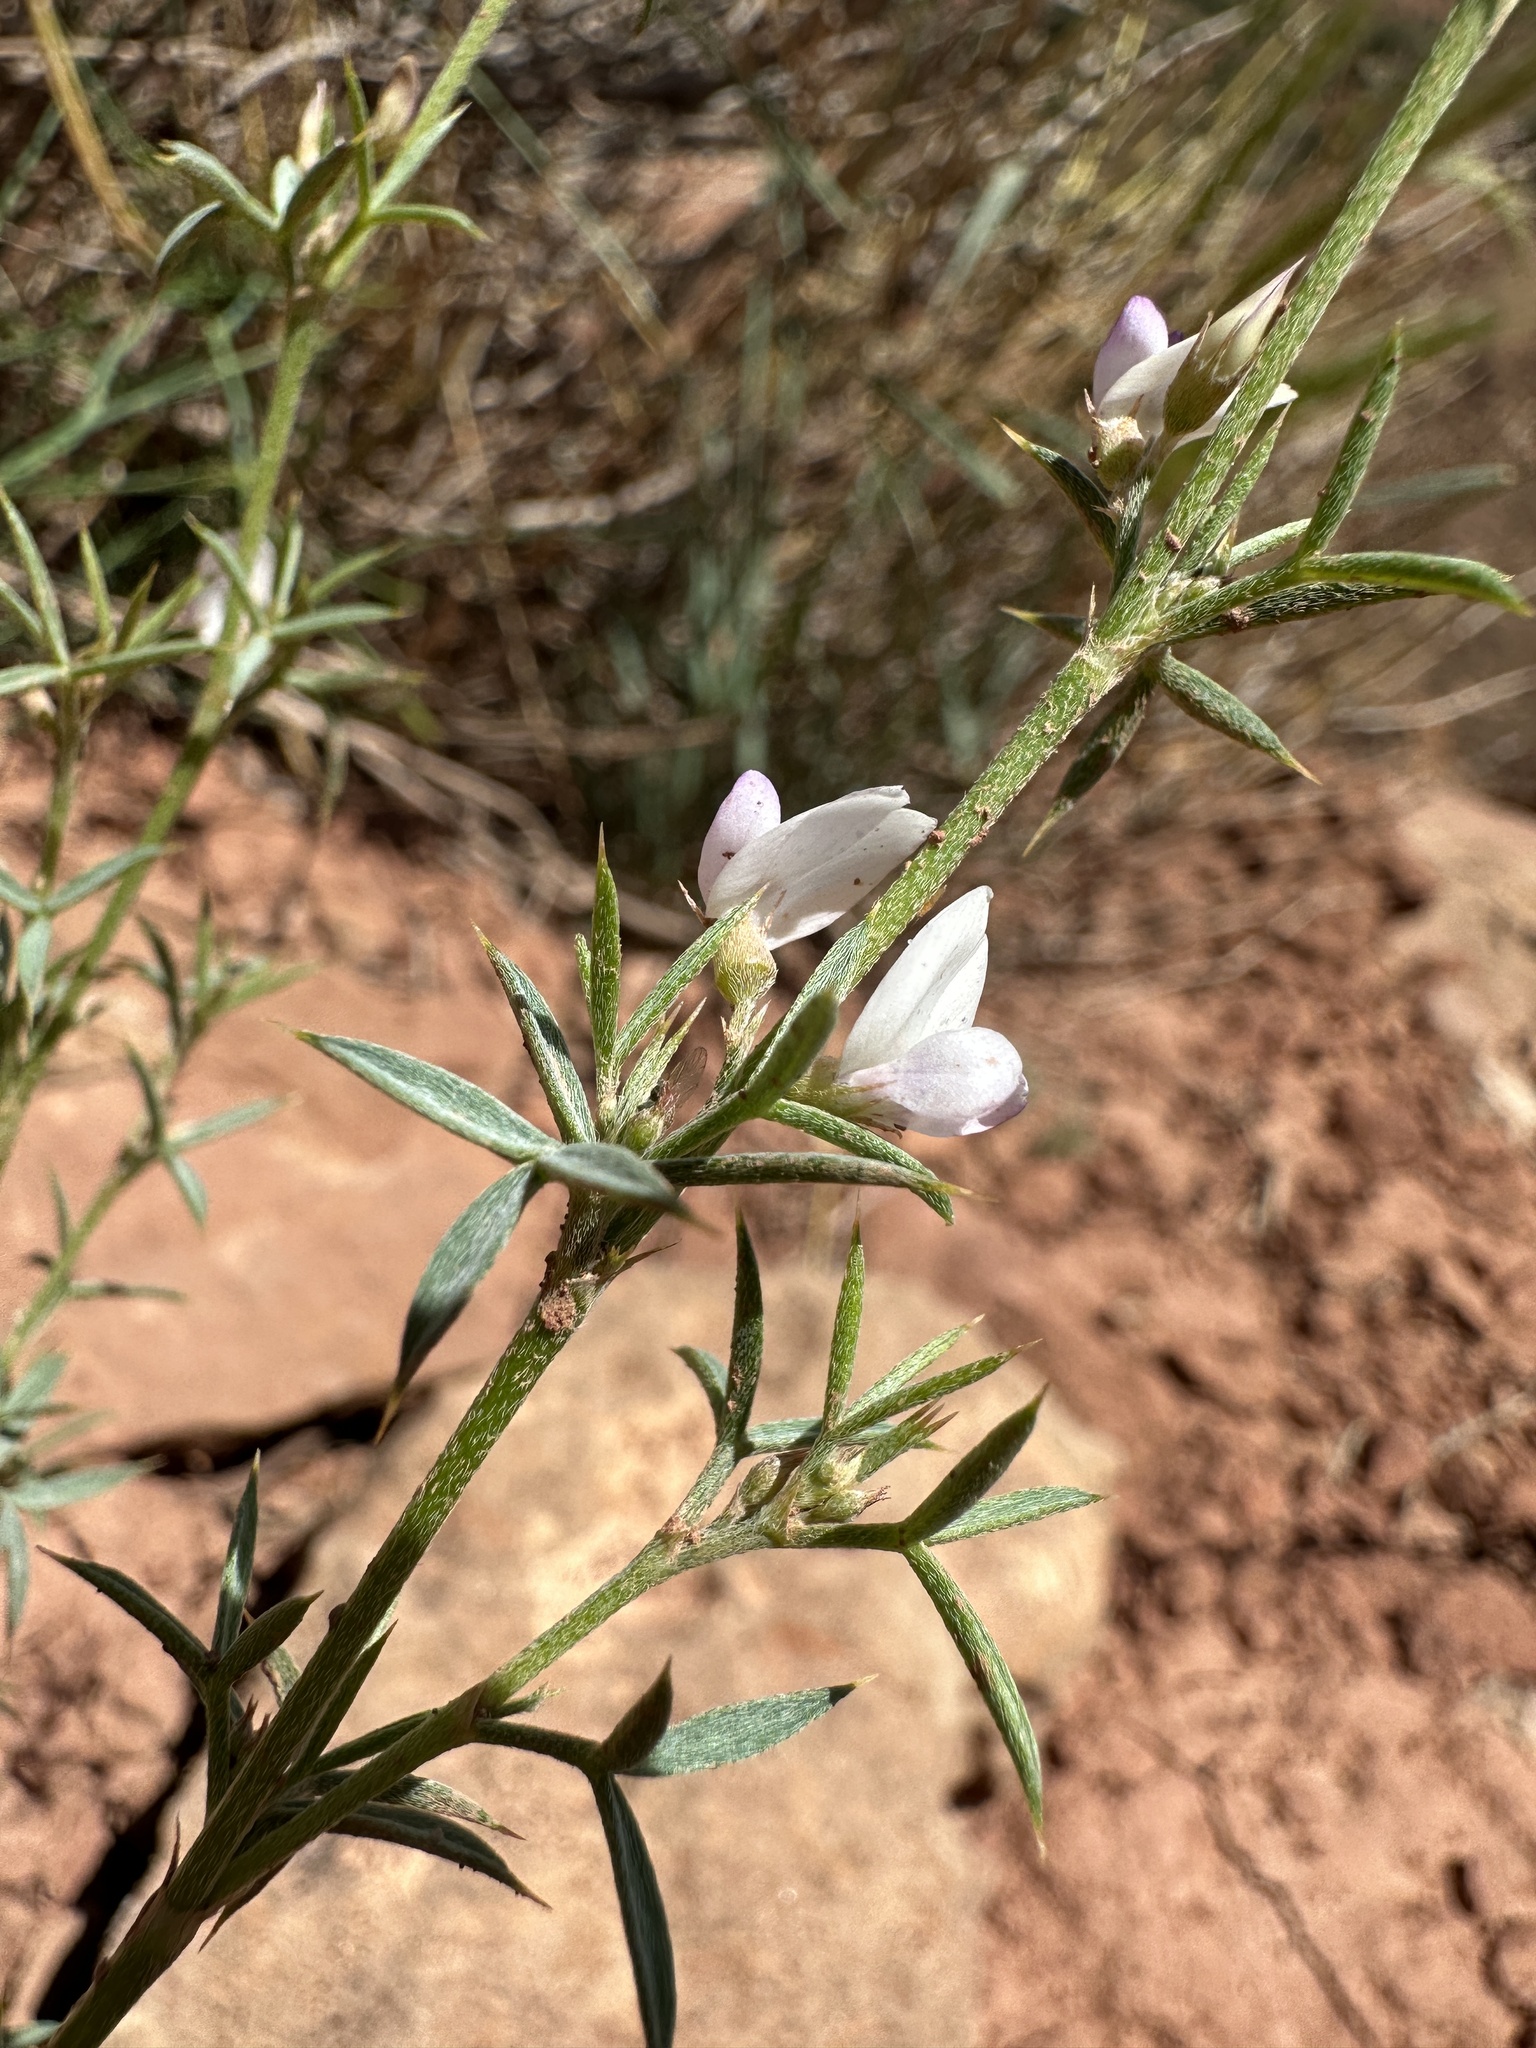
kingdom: Plantae
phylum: Tracheophyta
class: Magnoliopsida
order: Fabales
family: Fabaceae
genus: Astragalus
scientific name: Astragalus kentrophyta
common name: Prickly milk-vetch
